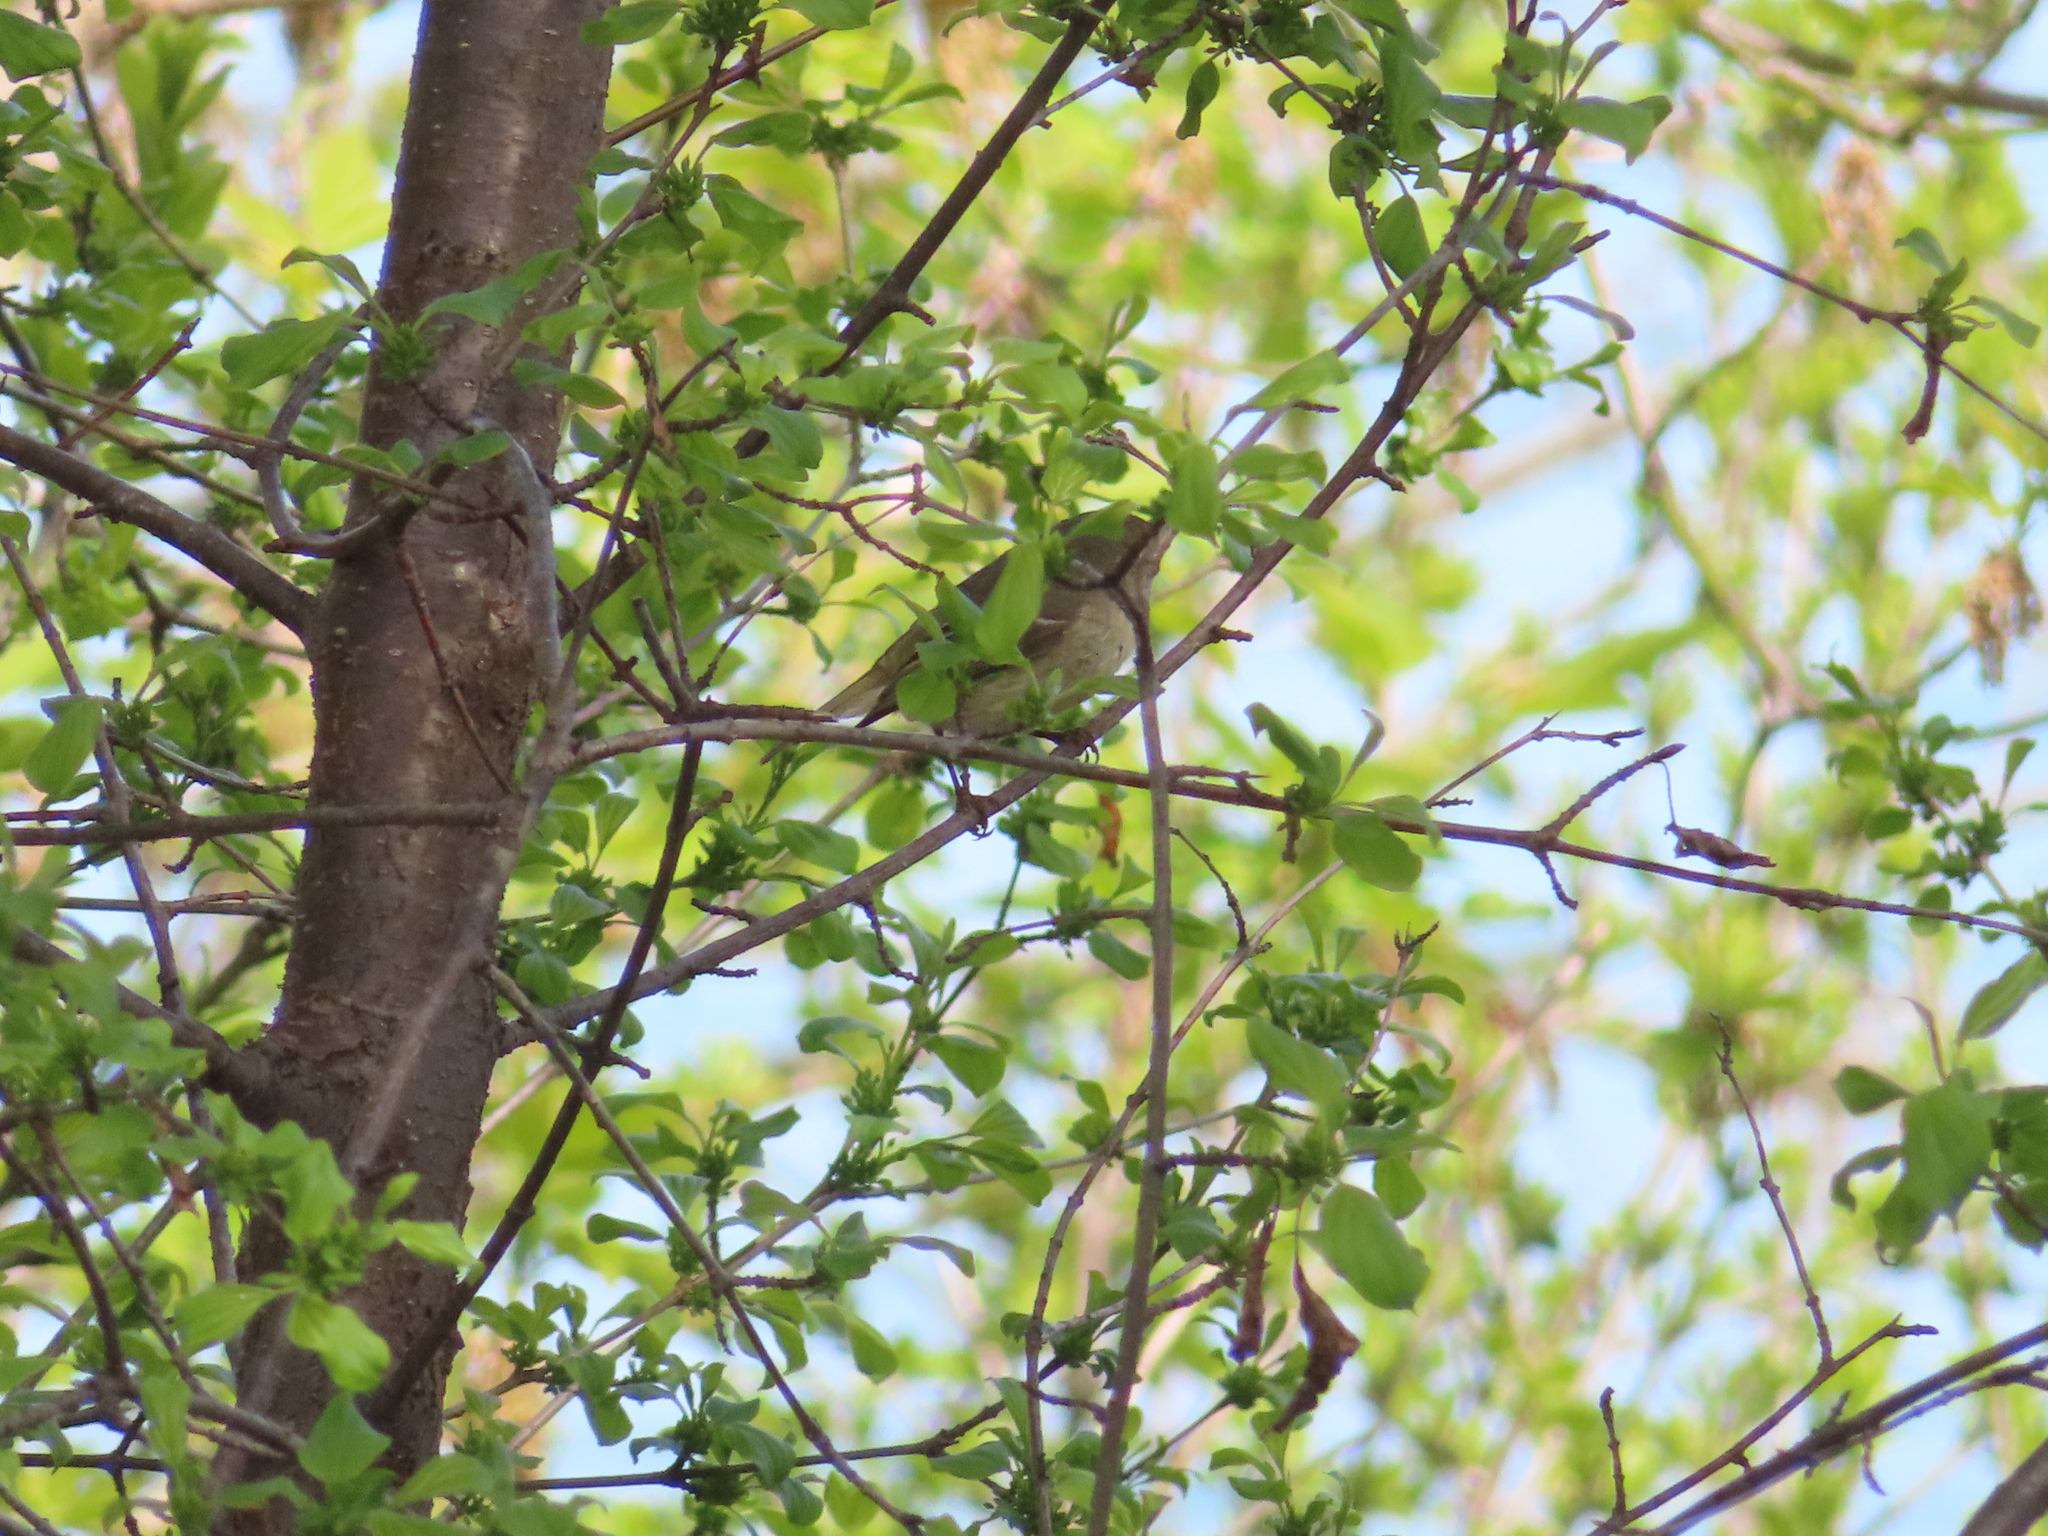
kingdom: Animalia
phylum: Chordata
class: Aves
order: Passeriformes
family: Regulidae
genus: Regulus
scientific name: Regulus calendula
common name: Ruby-crowned kinglet
